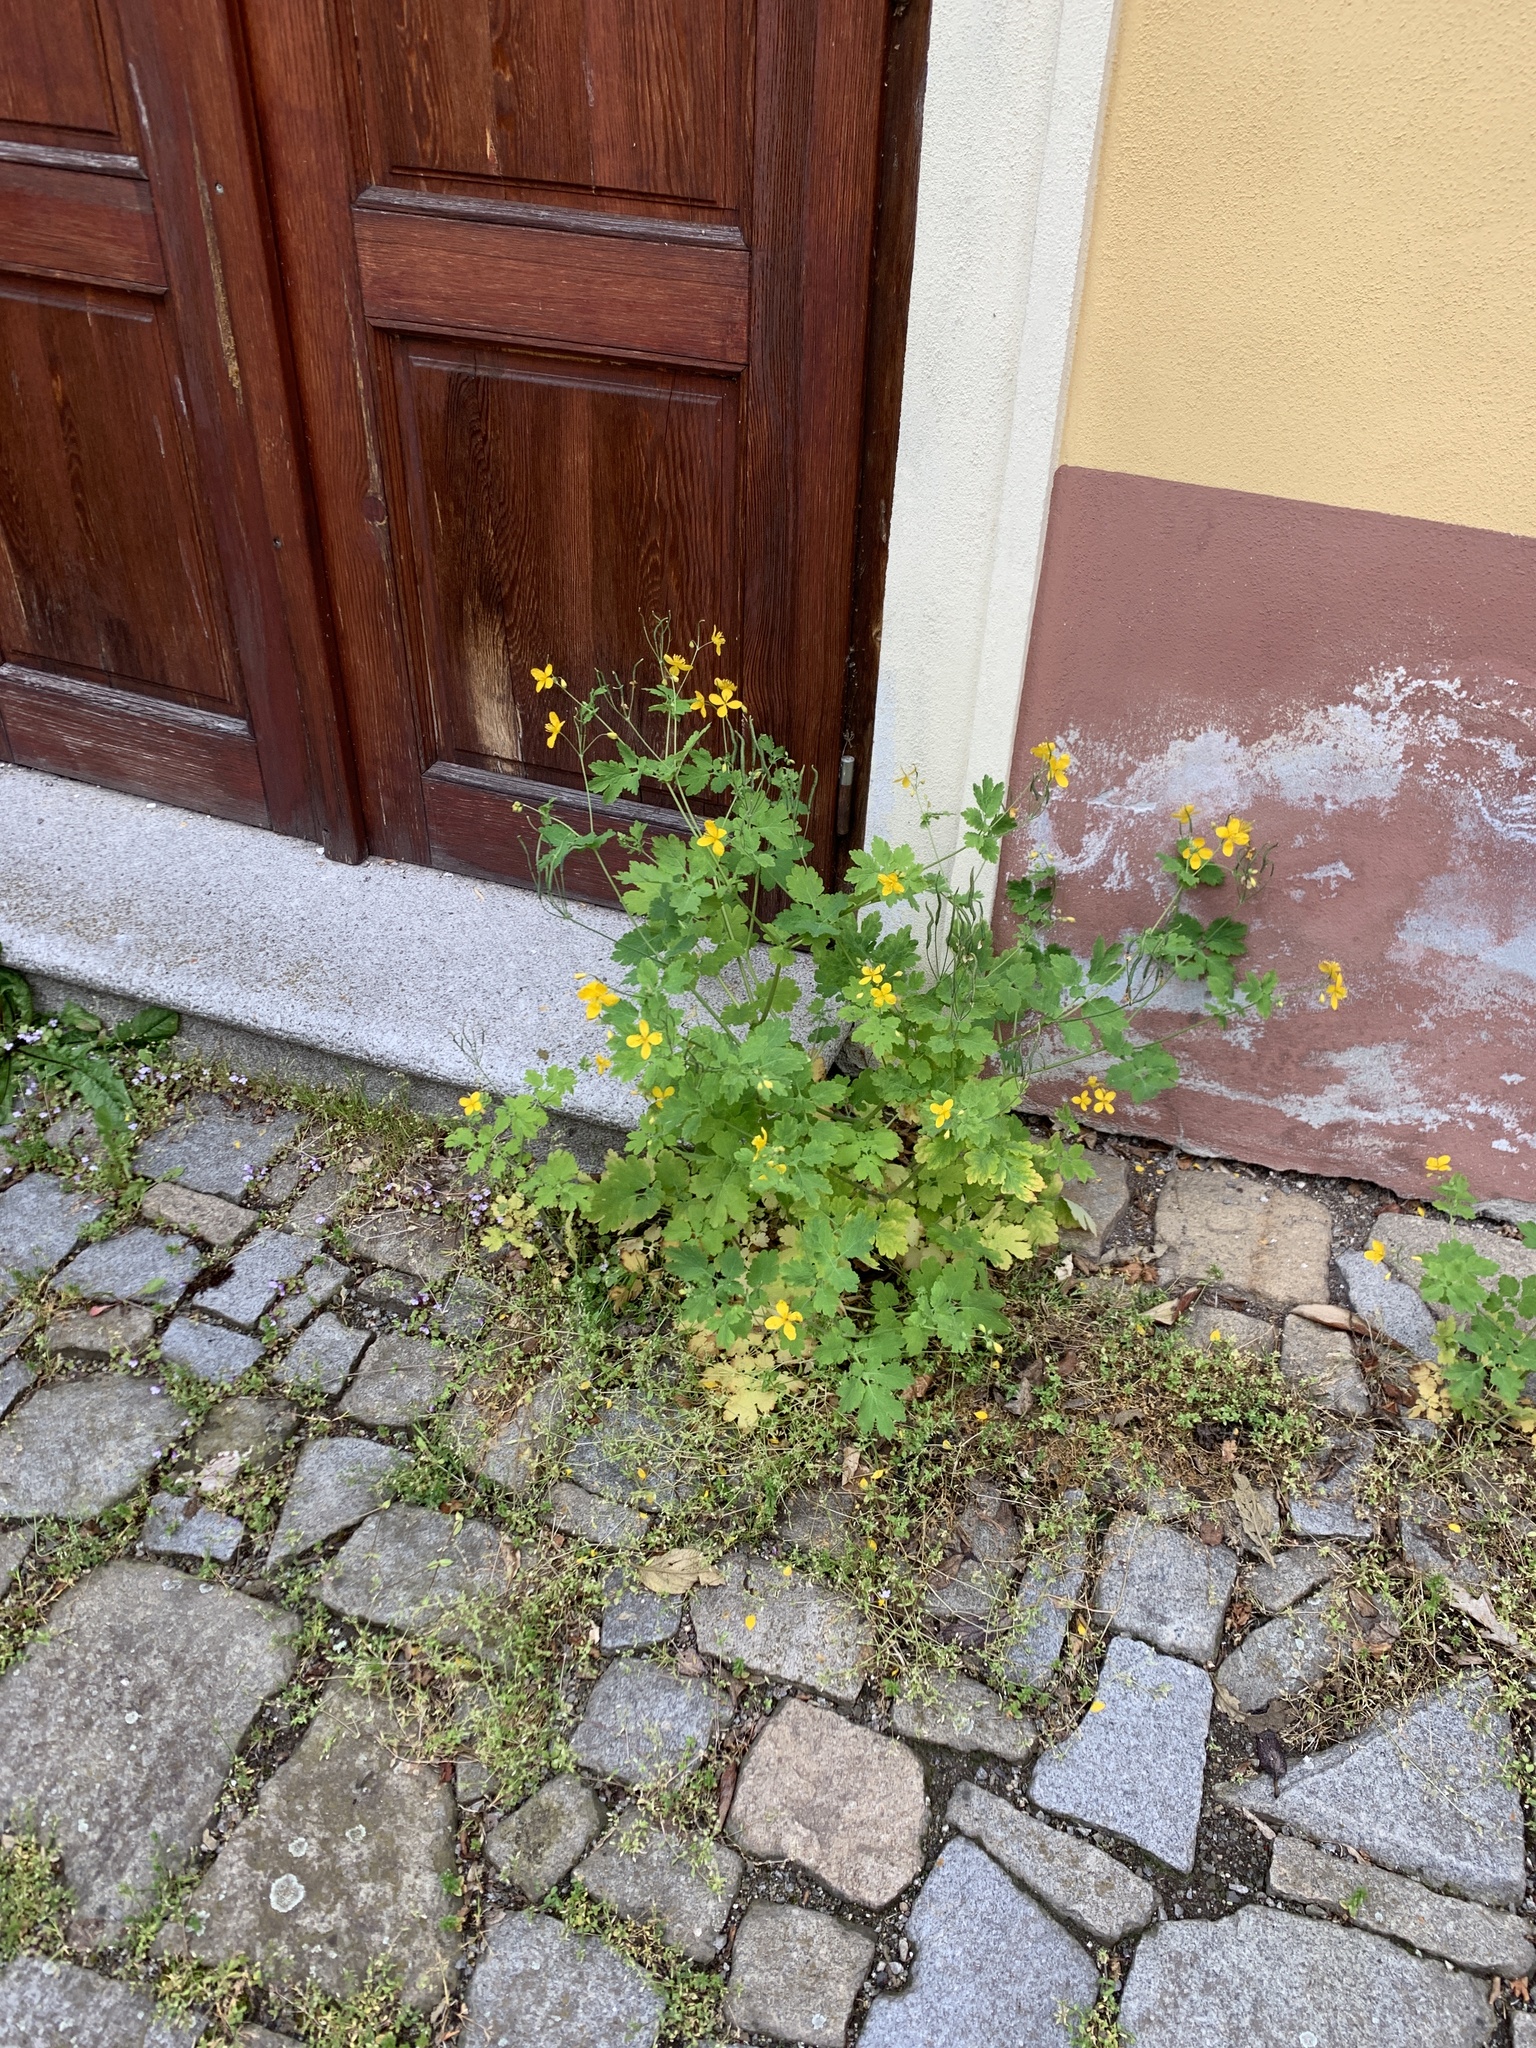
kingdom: Plantae
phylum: Tracheophyta
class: Magnoliopsida
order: Ranunculales
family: Papaveraceae
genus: Chelidonium
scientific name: Chelidonium majus
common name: Greater celandine
